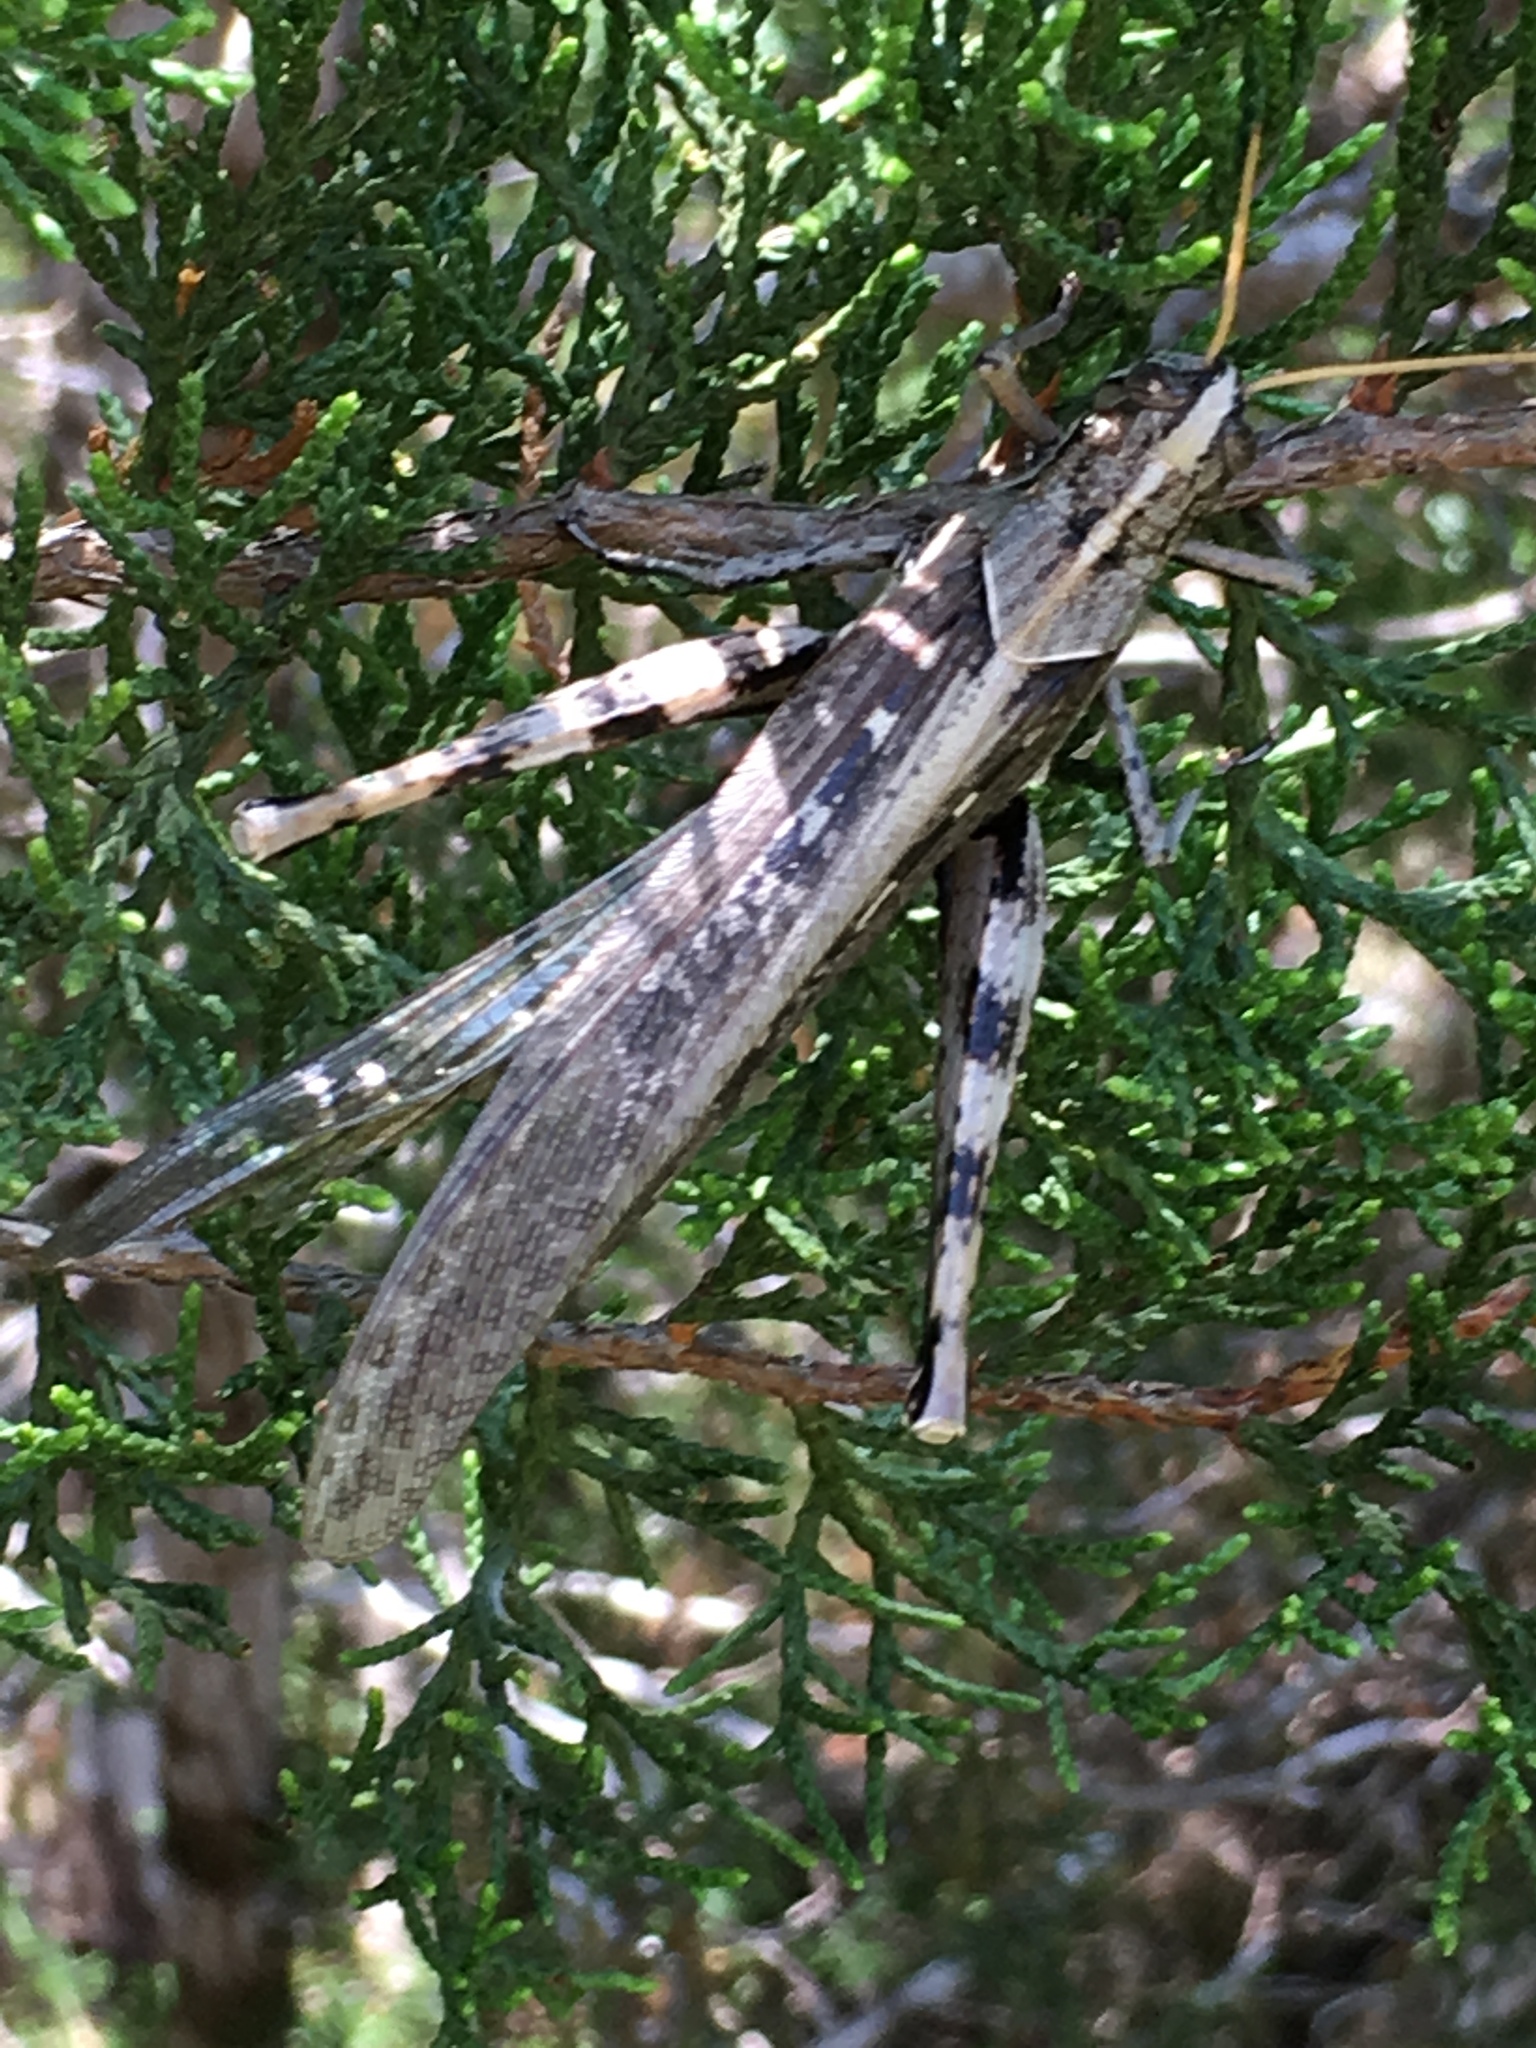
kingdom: Animalia
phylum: Arthropoda
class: Insecta
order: Orthoptera
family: Acrididae
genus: Schistocerca
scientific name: Schistocerca nitens
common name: Vagrant grasshopper
